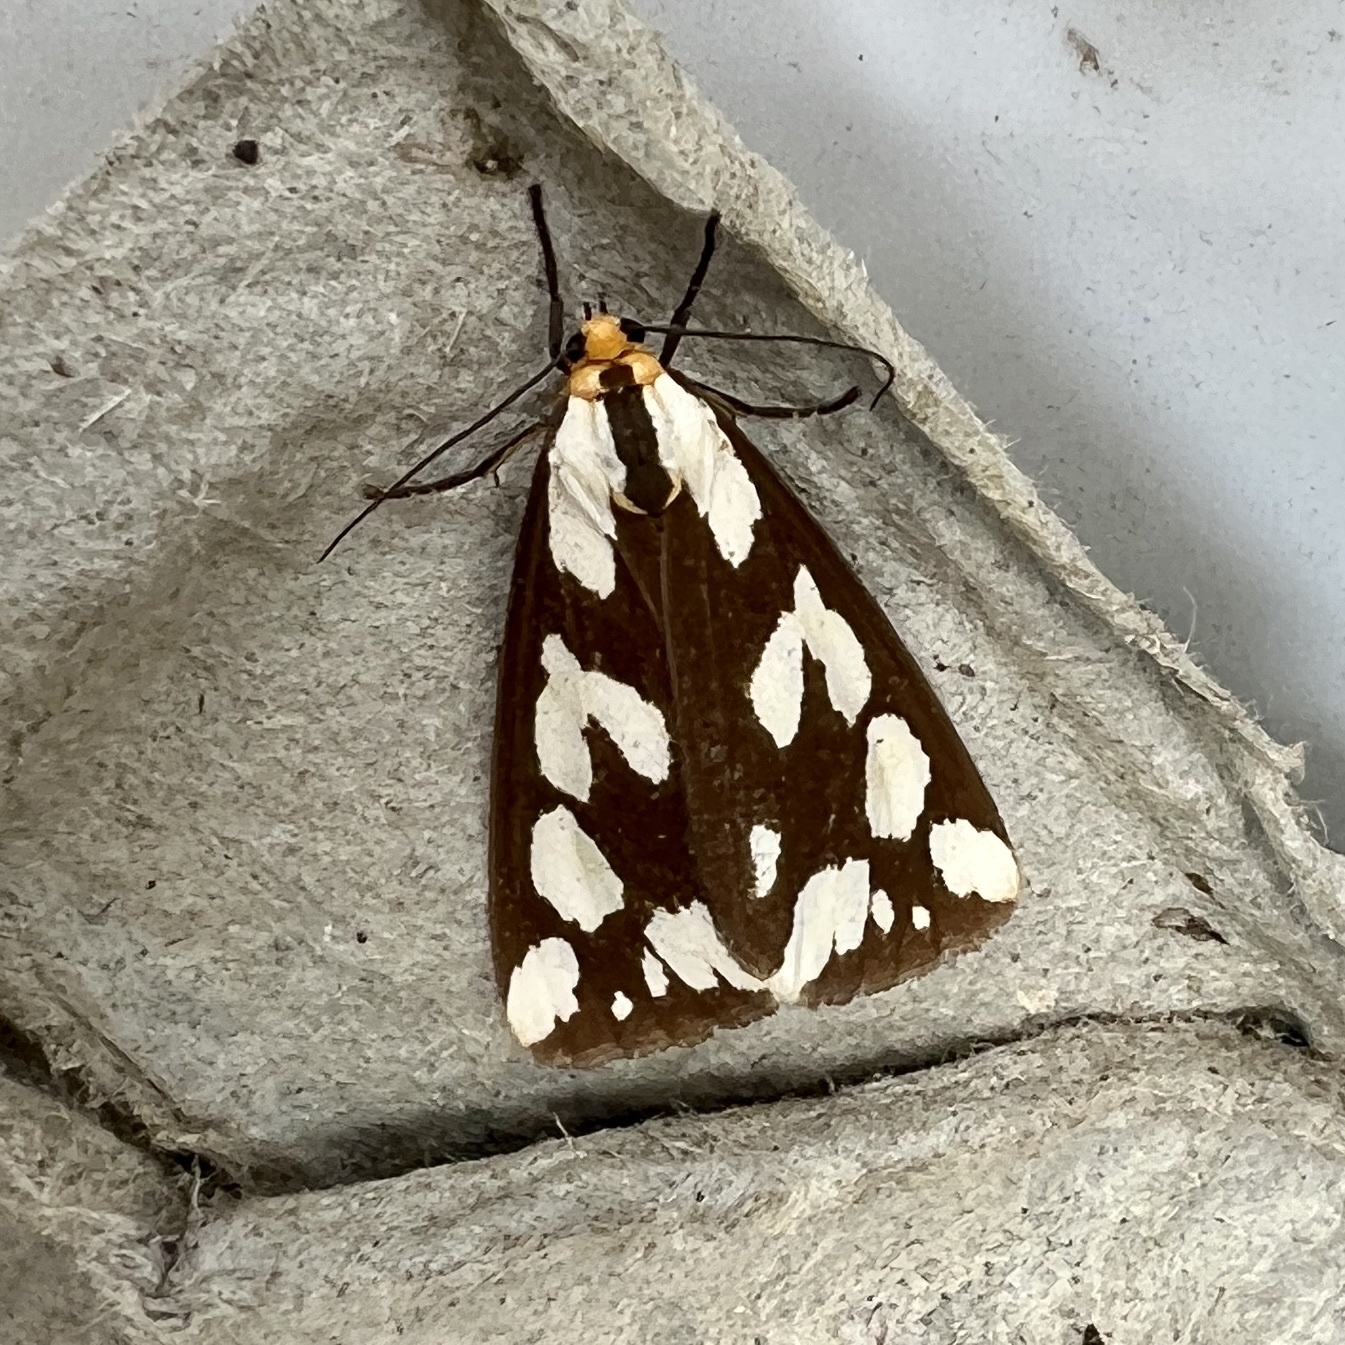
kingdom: Animalia
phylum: Arthropoda
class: Insecta
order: Lepidoptera
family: Erebidae
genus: Haploa
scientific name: Haploa confusa
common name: Confused haploa moth
